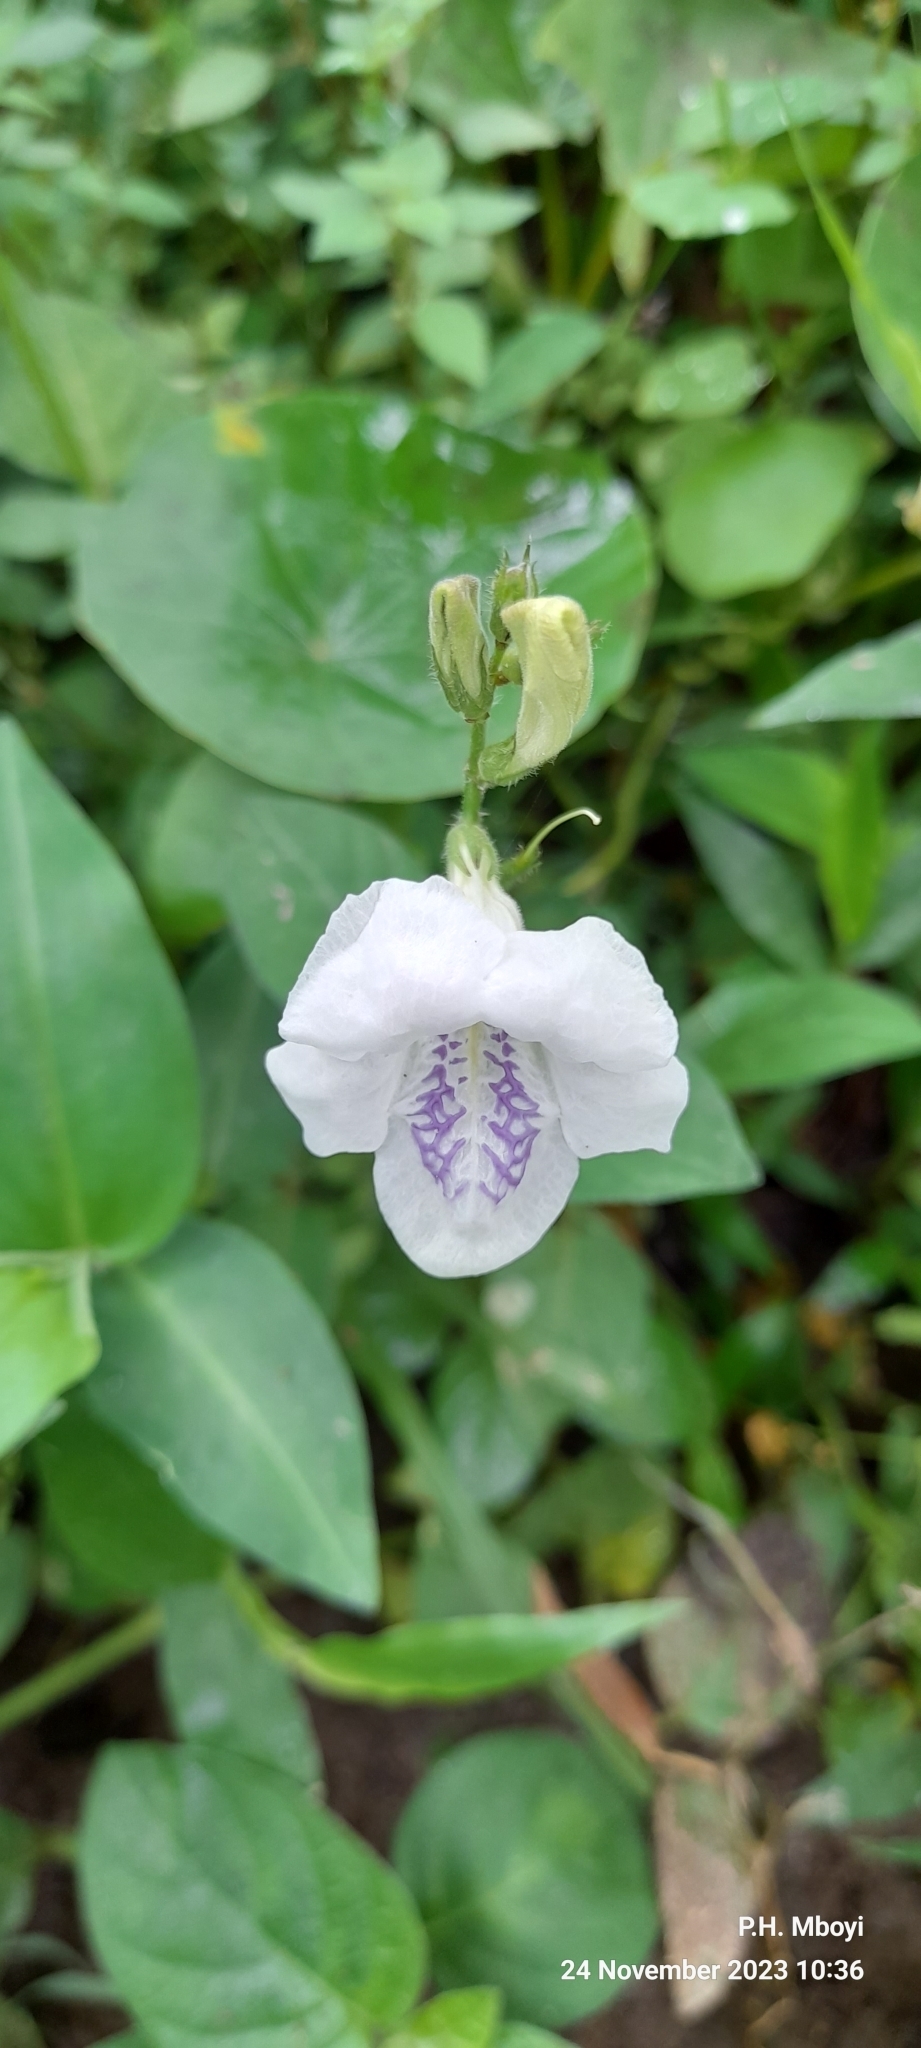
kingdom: Plantae
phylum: Tracheophyta
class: Magnoliopsida
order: Lamiales
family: Acanthaceae
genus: Asystasia
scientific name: Asystasia intrusa
